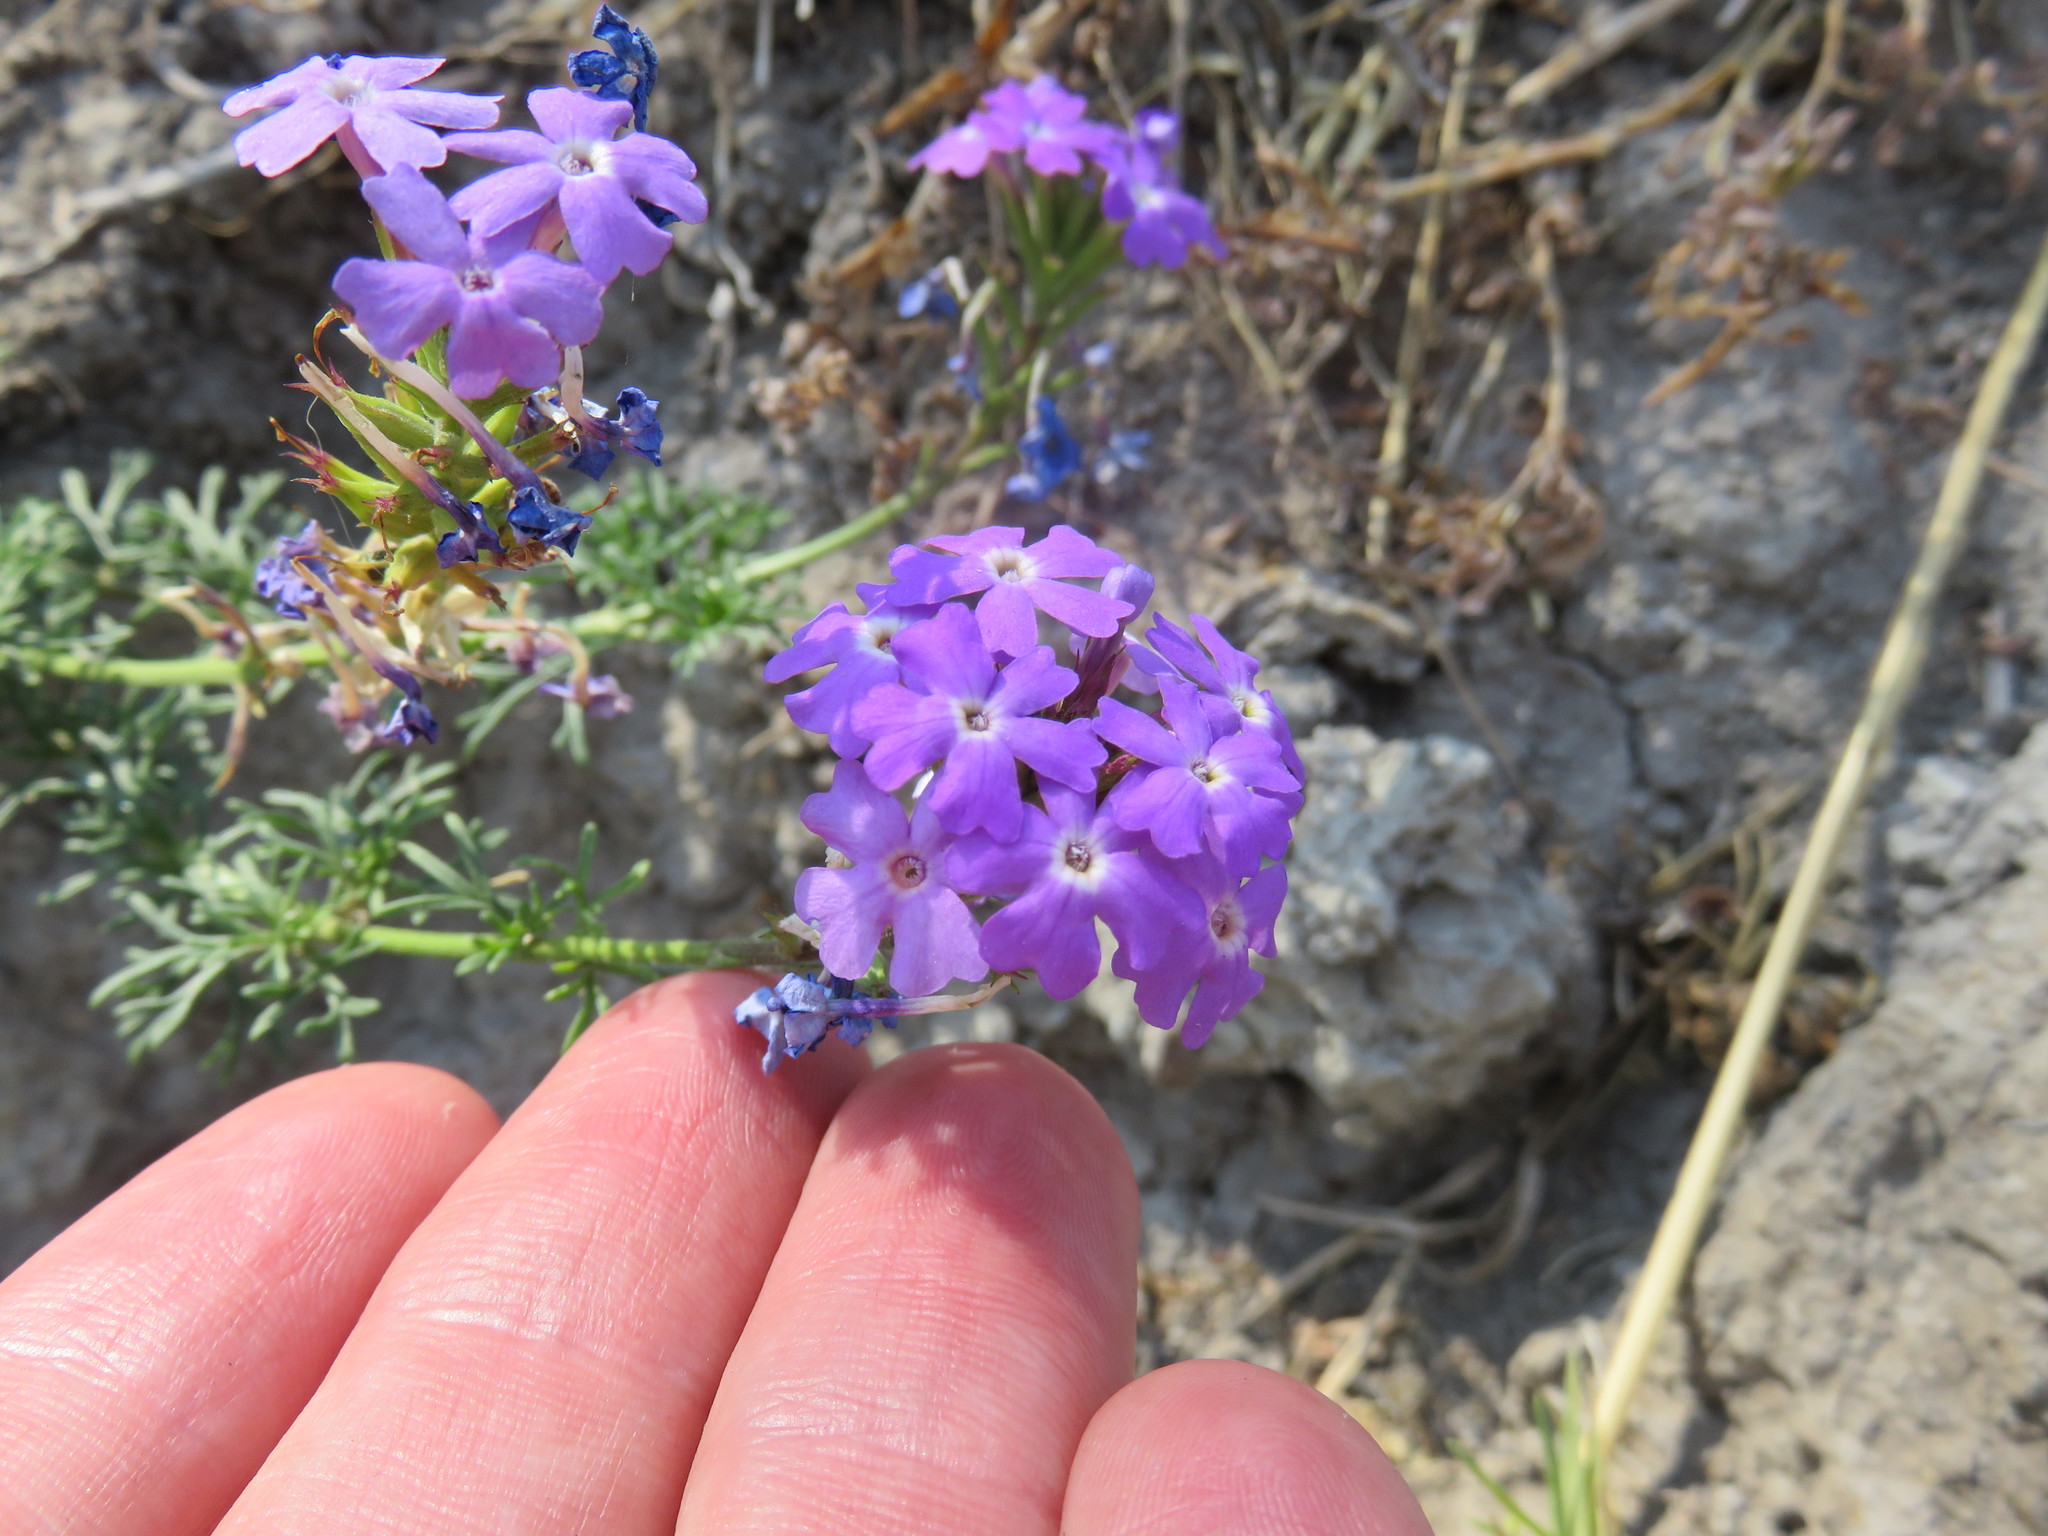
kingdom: Plantae
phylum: Tracheophyta
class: Magnoliopsida
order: Lamiales
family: Verbenaceae
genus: Verbena
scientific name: Verbena aristigera
